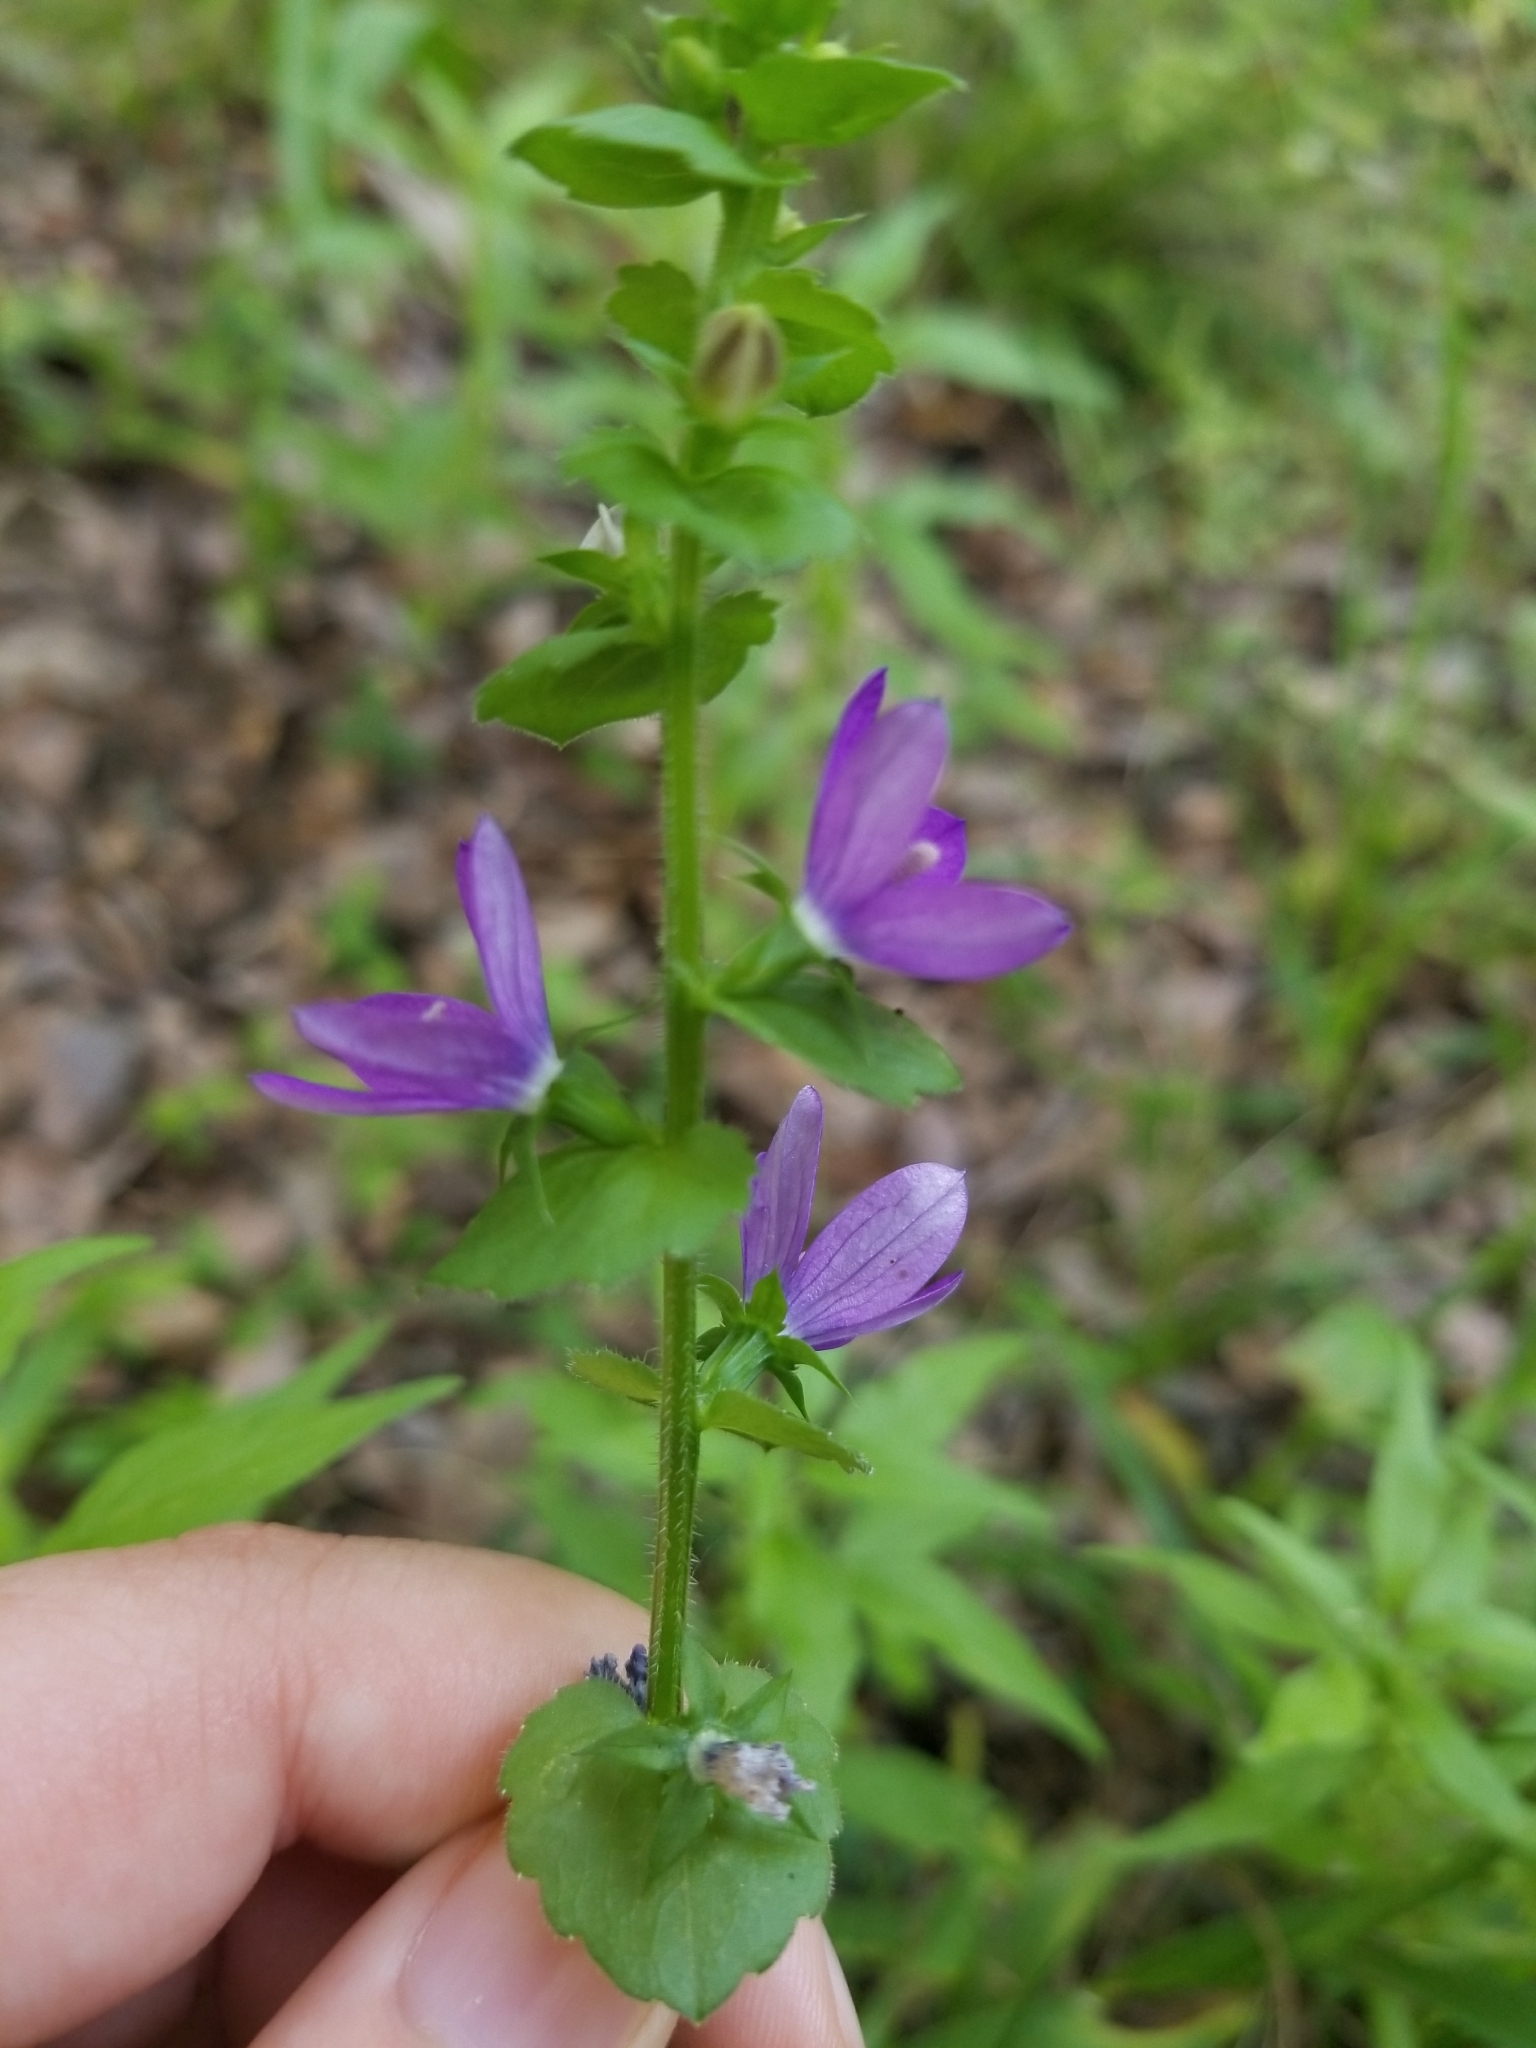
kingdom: Plantae
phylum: Tracheophyta
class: Magnoliopsida
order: Asterales
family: Campanulaceae
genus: Triodanis
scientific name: Triodanis perfoliata
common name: Clasping venus' looking-glass
